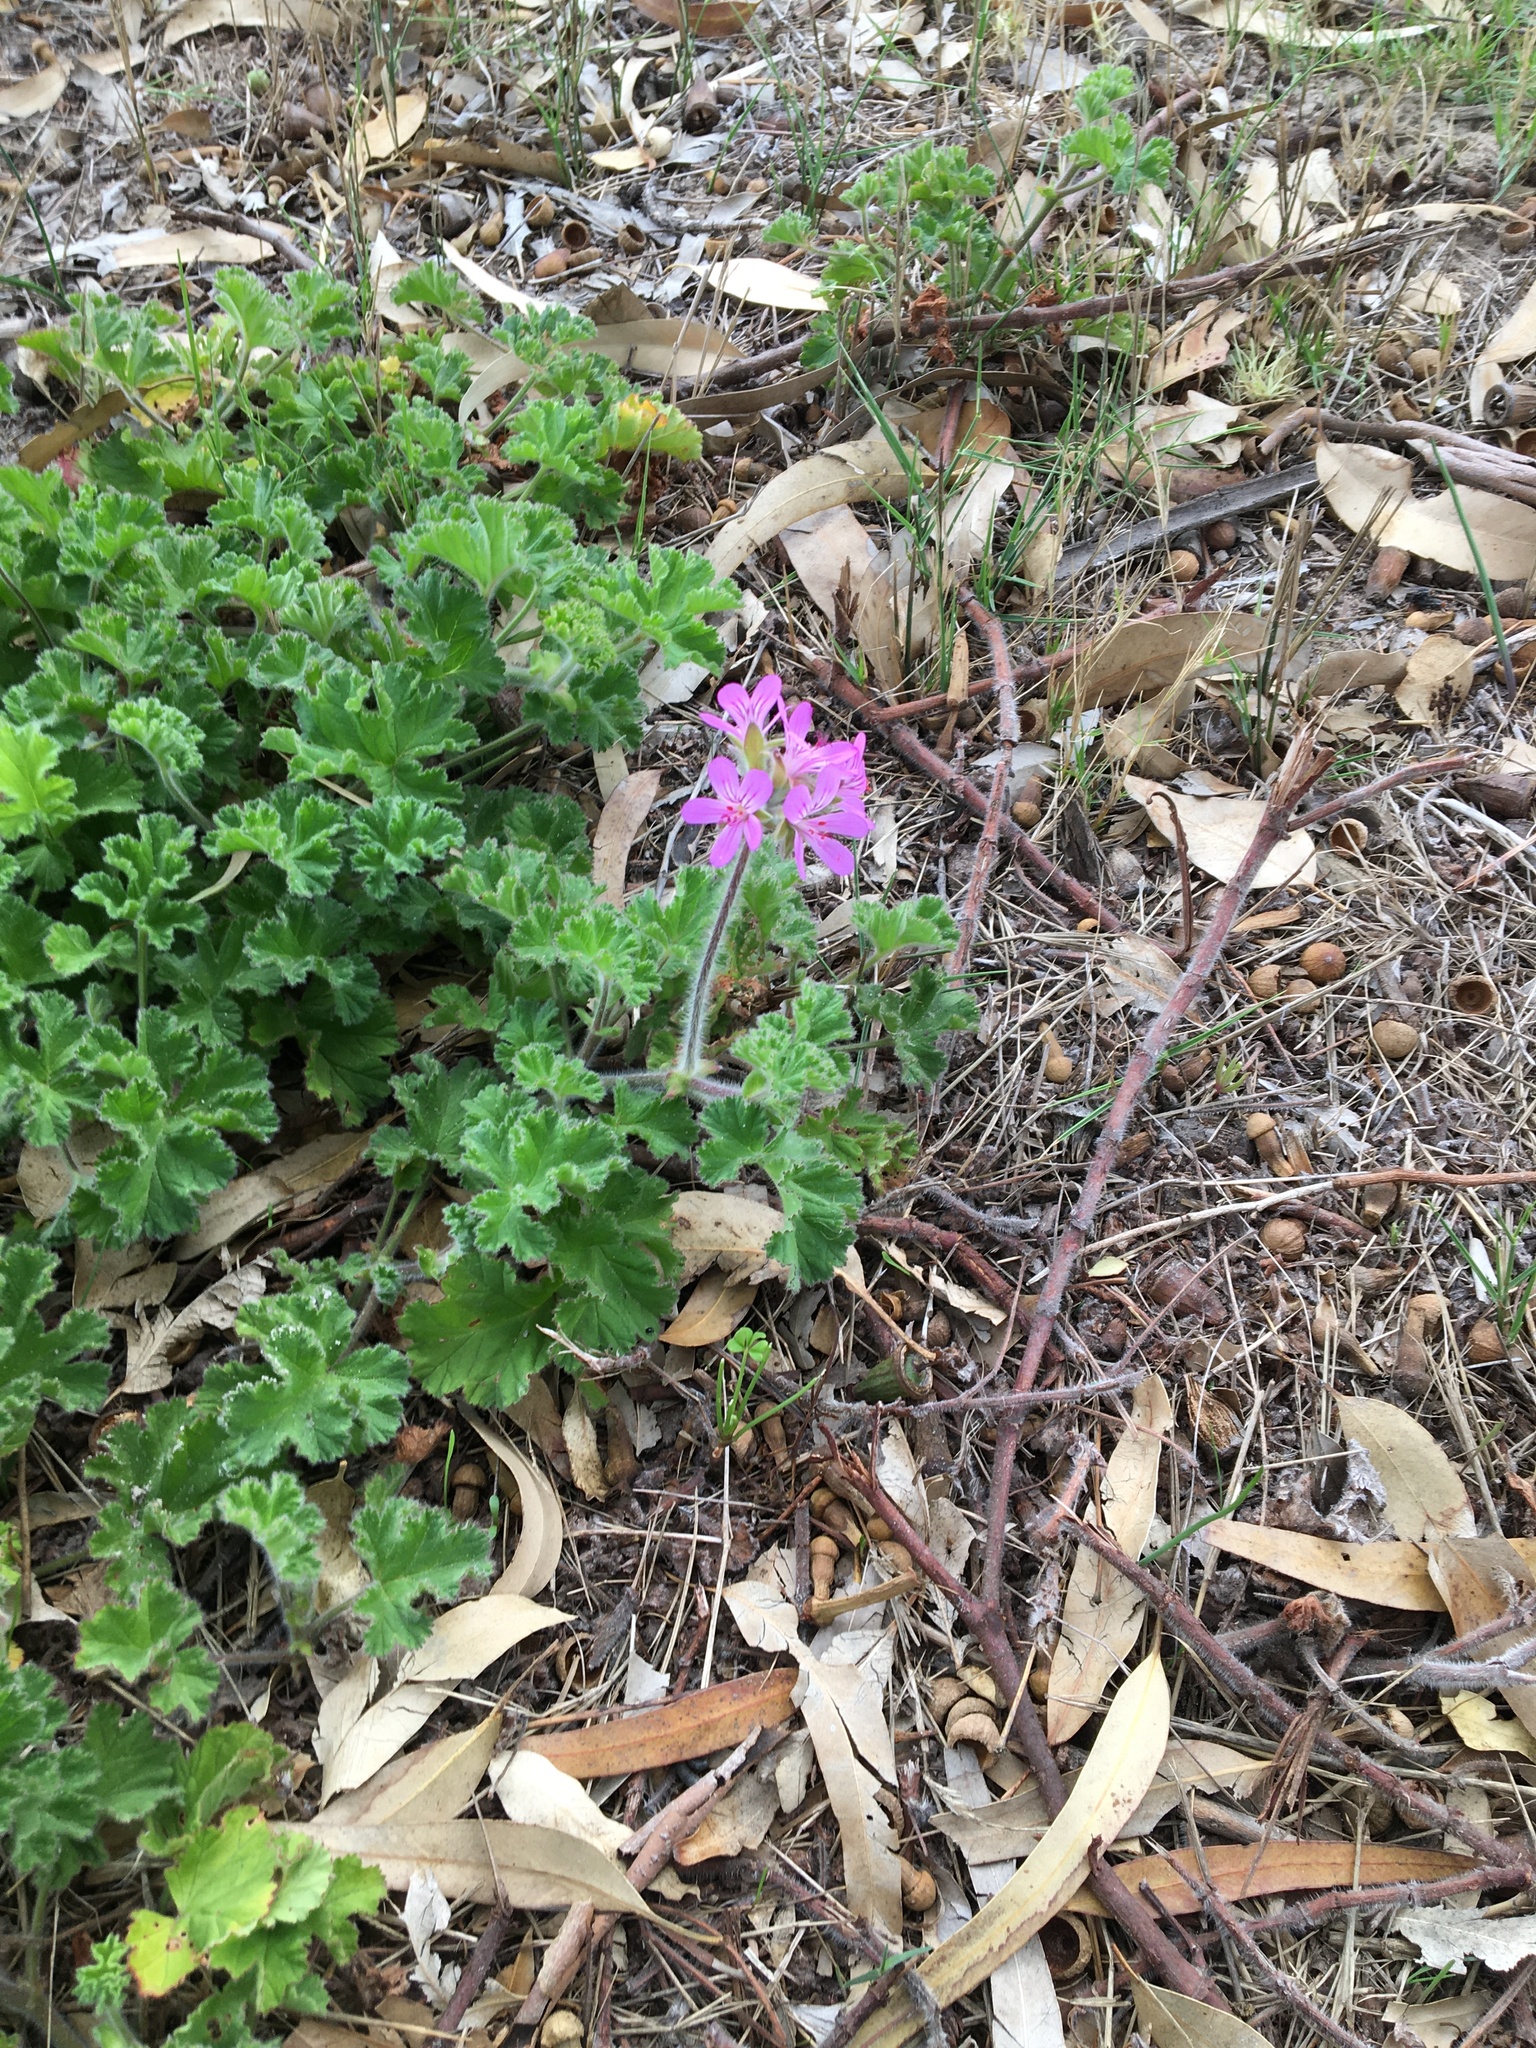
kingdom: Plantae
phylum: Tracheophyta
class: Magnoliopsida
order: Geraniales
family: Geraniaceae
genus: Pelargonium
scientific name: Pelargonium capitatum
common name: Rose scented geranium
